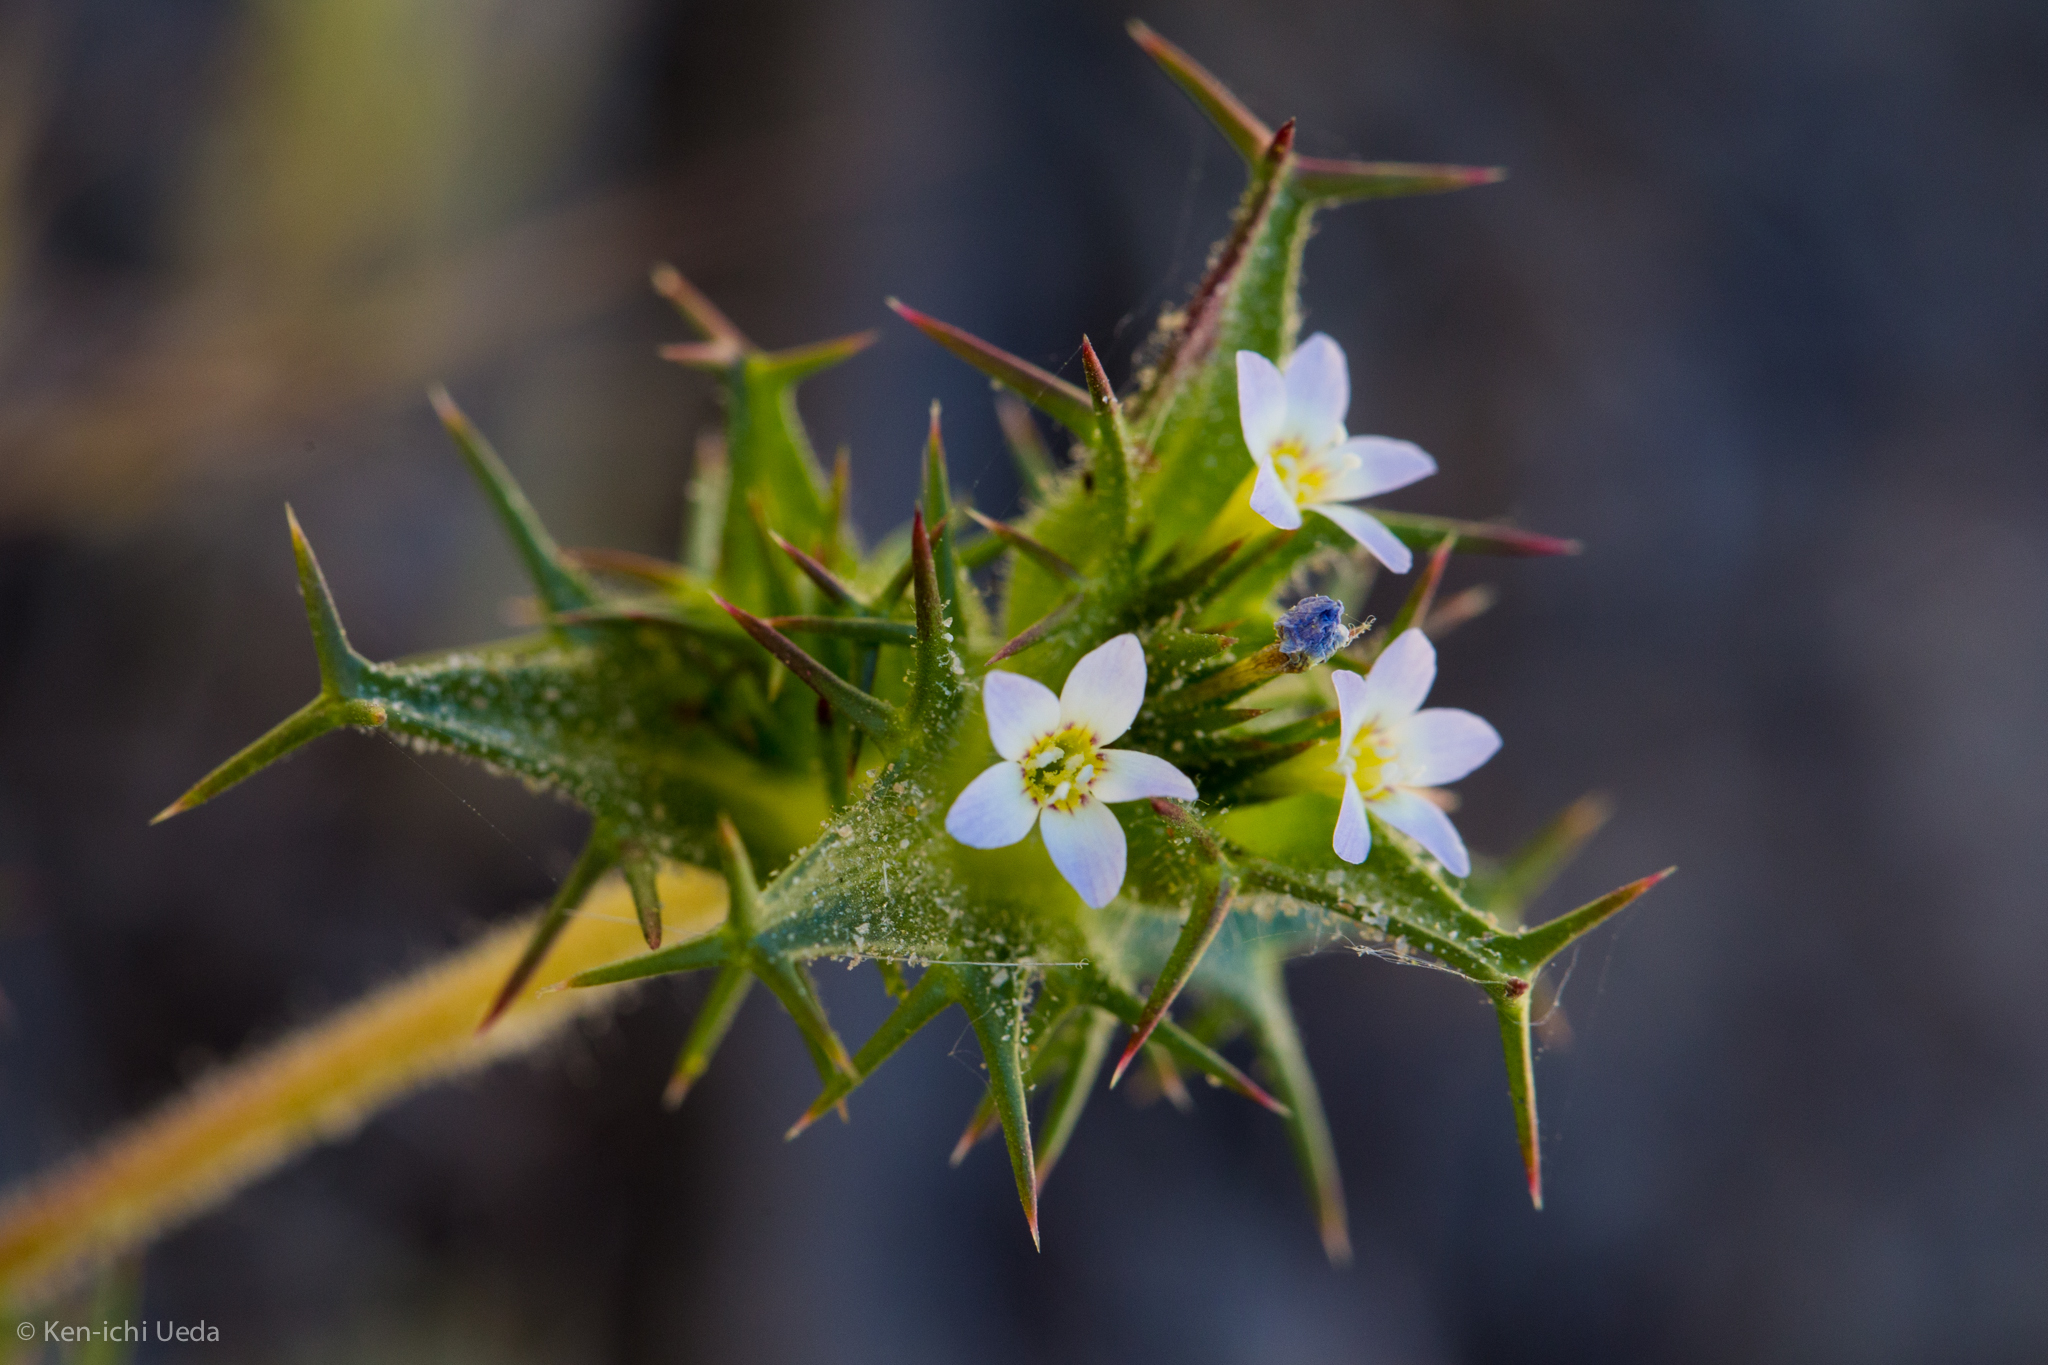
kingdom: Plantae
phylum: Tracheophyta
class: Magnoliopsida
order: Ericales
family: Polemoniaceae
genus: Navarretia
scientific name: Navarretia hamata
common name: Hooked navarretia
